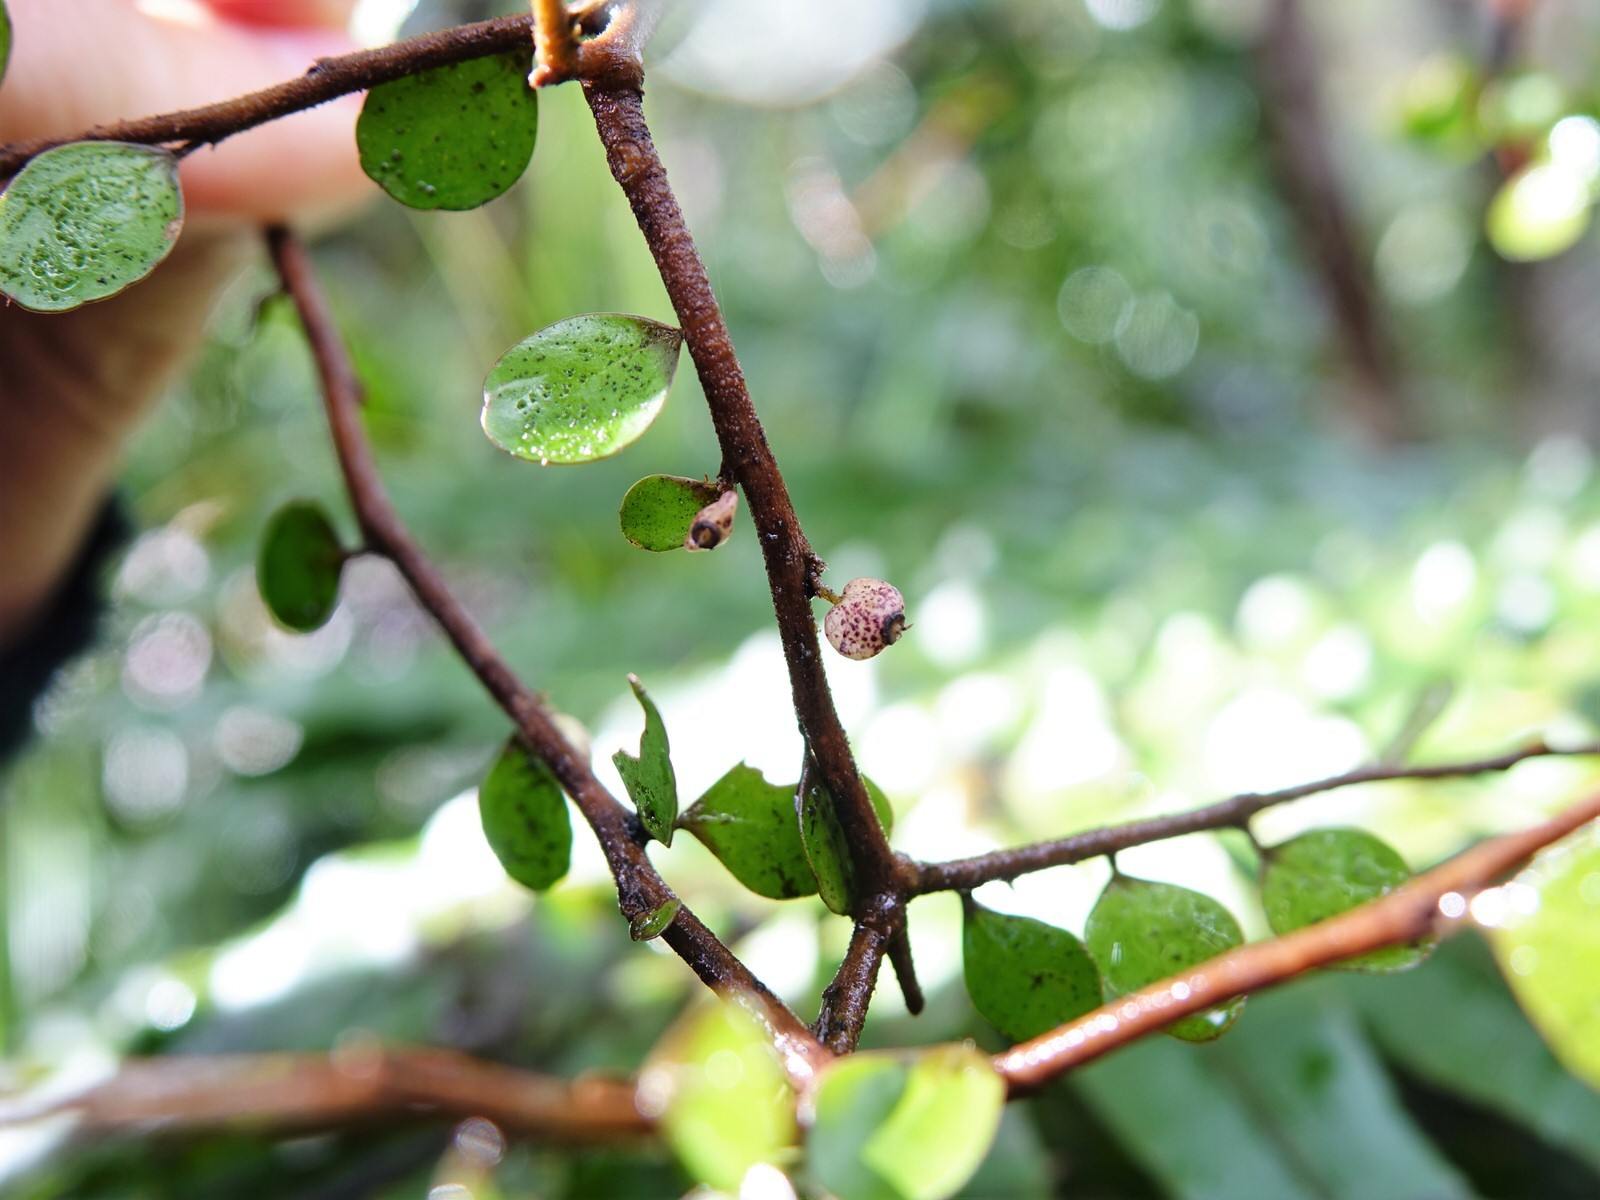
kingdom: Plantae
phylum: Tracheophyta
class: Magnoliopsida
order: Apiales
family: Araliaceae
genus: Raukaua
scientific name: Raukaua anomalus
